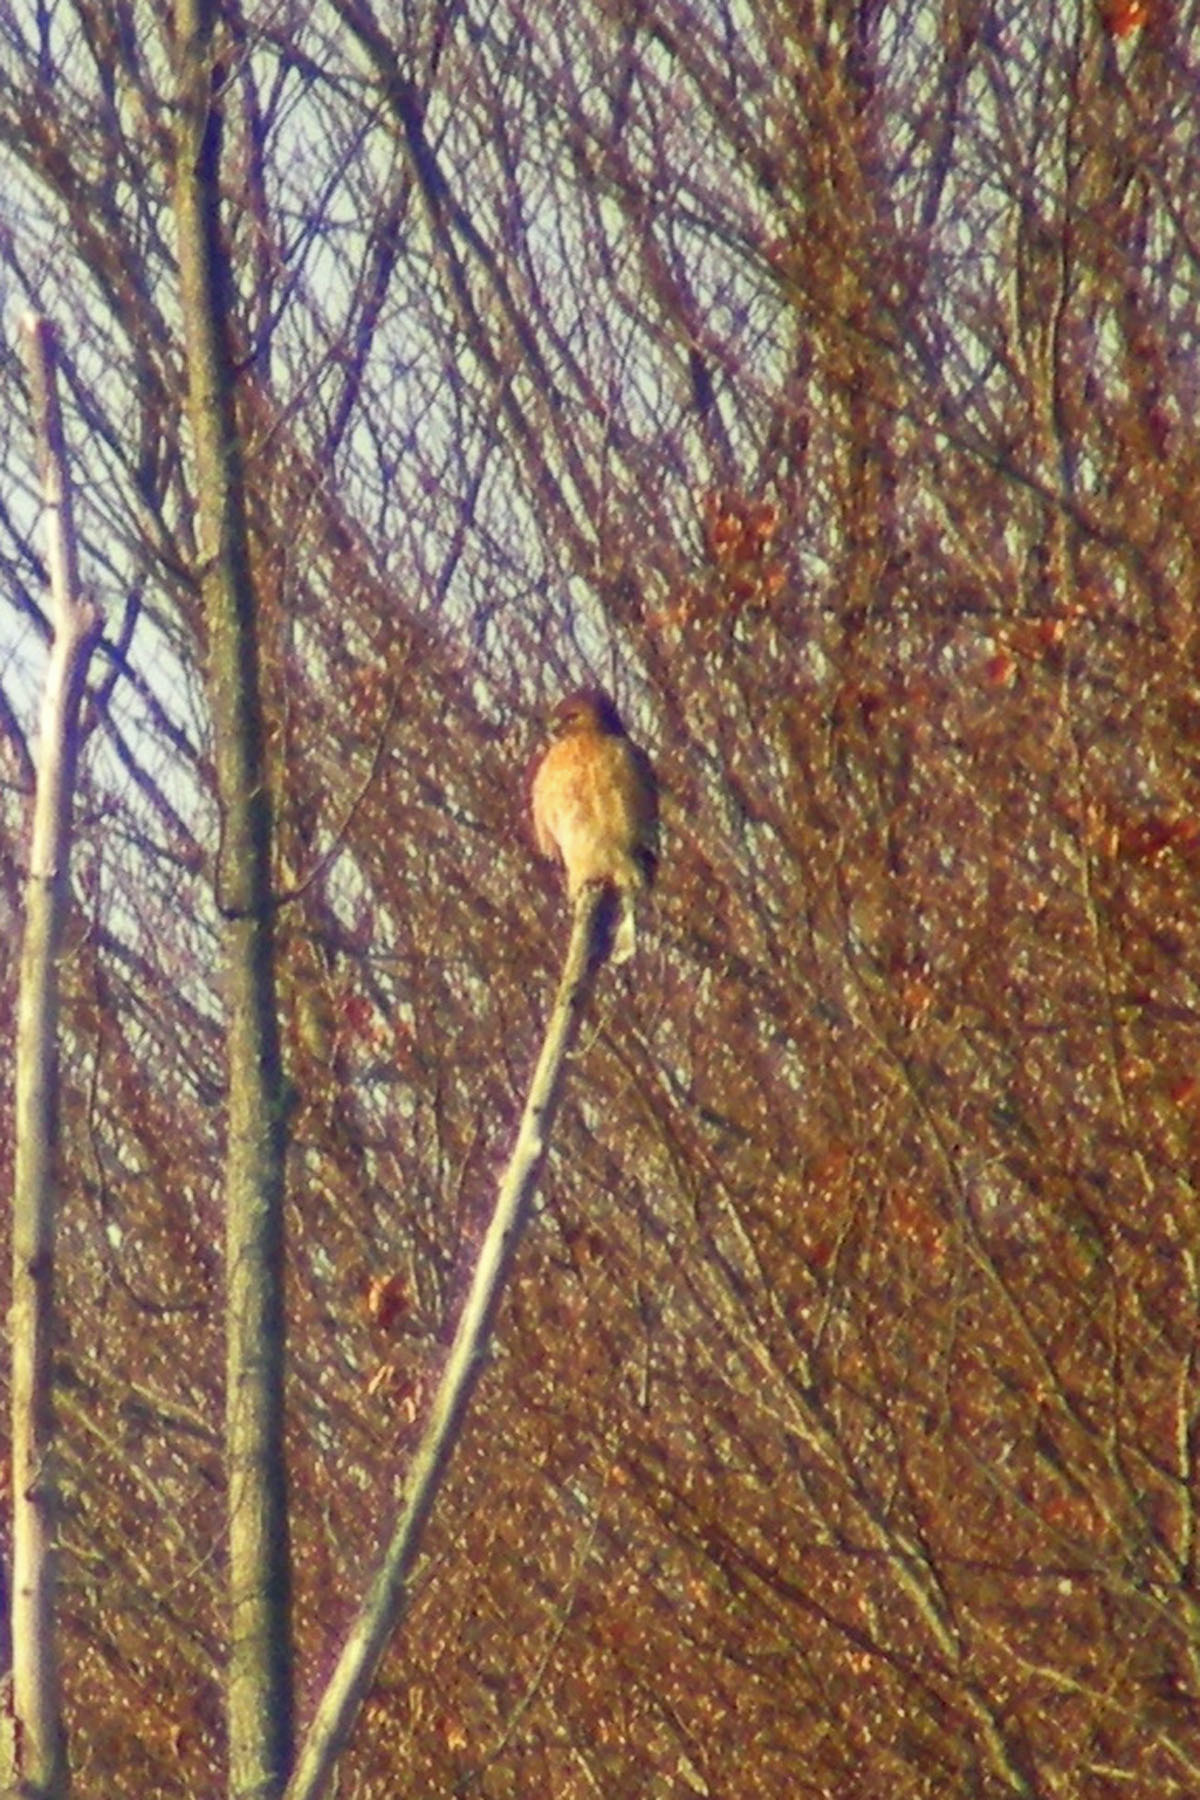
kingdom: Animalia
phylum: Chordata
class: Aves
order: Accipitriformes
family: Accipitridae
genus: Buteo
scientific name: Buteo lineatus
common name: Red-shouldered hawk
